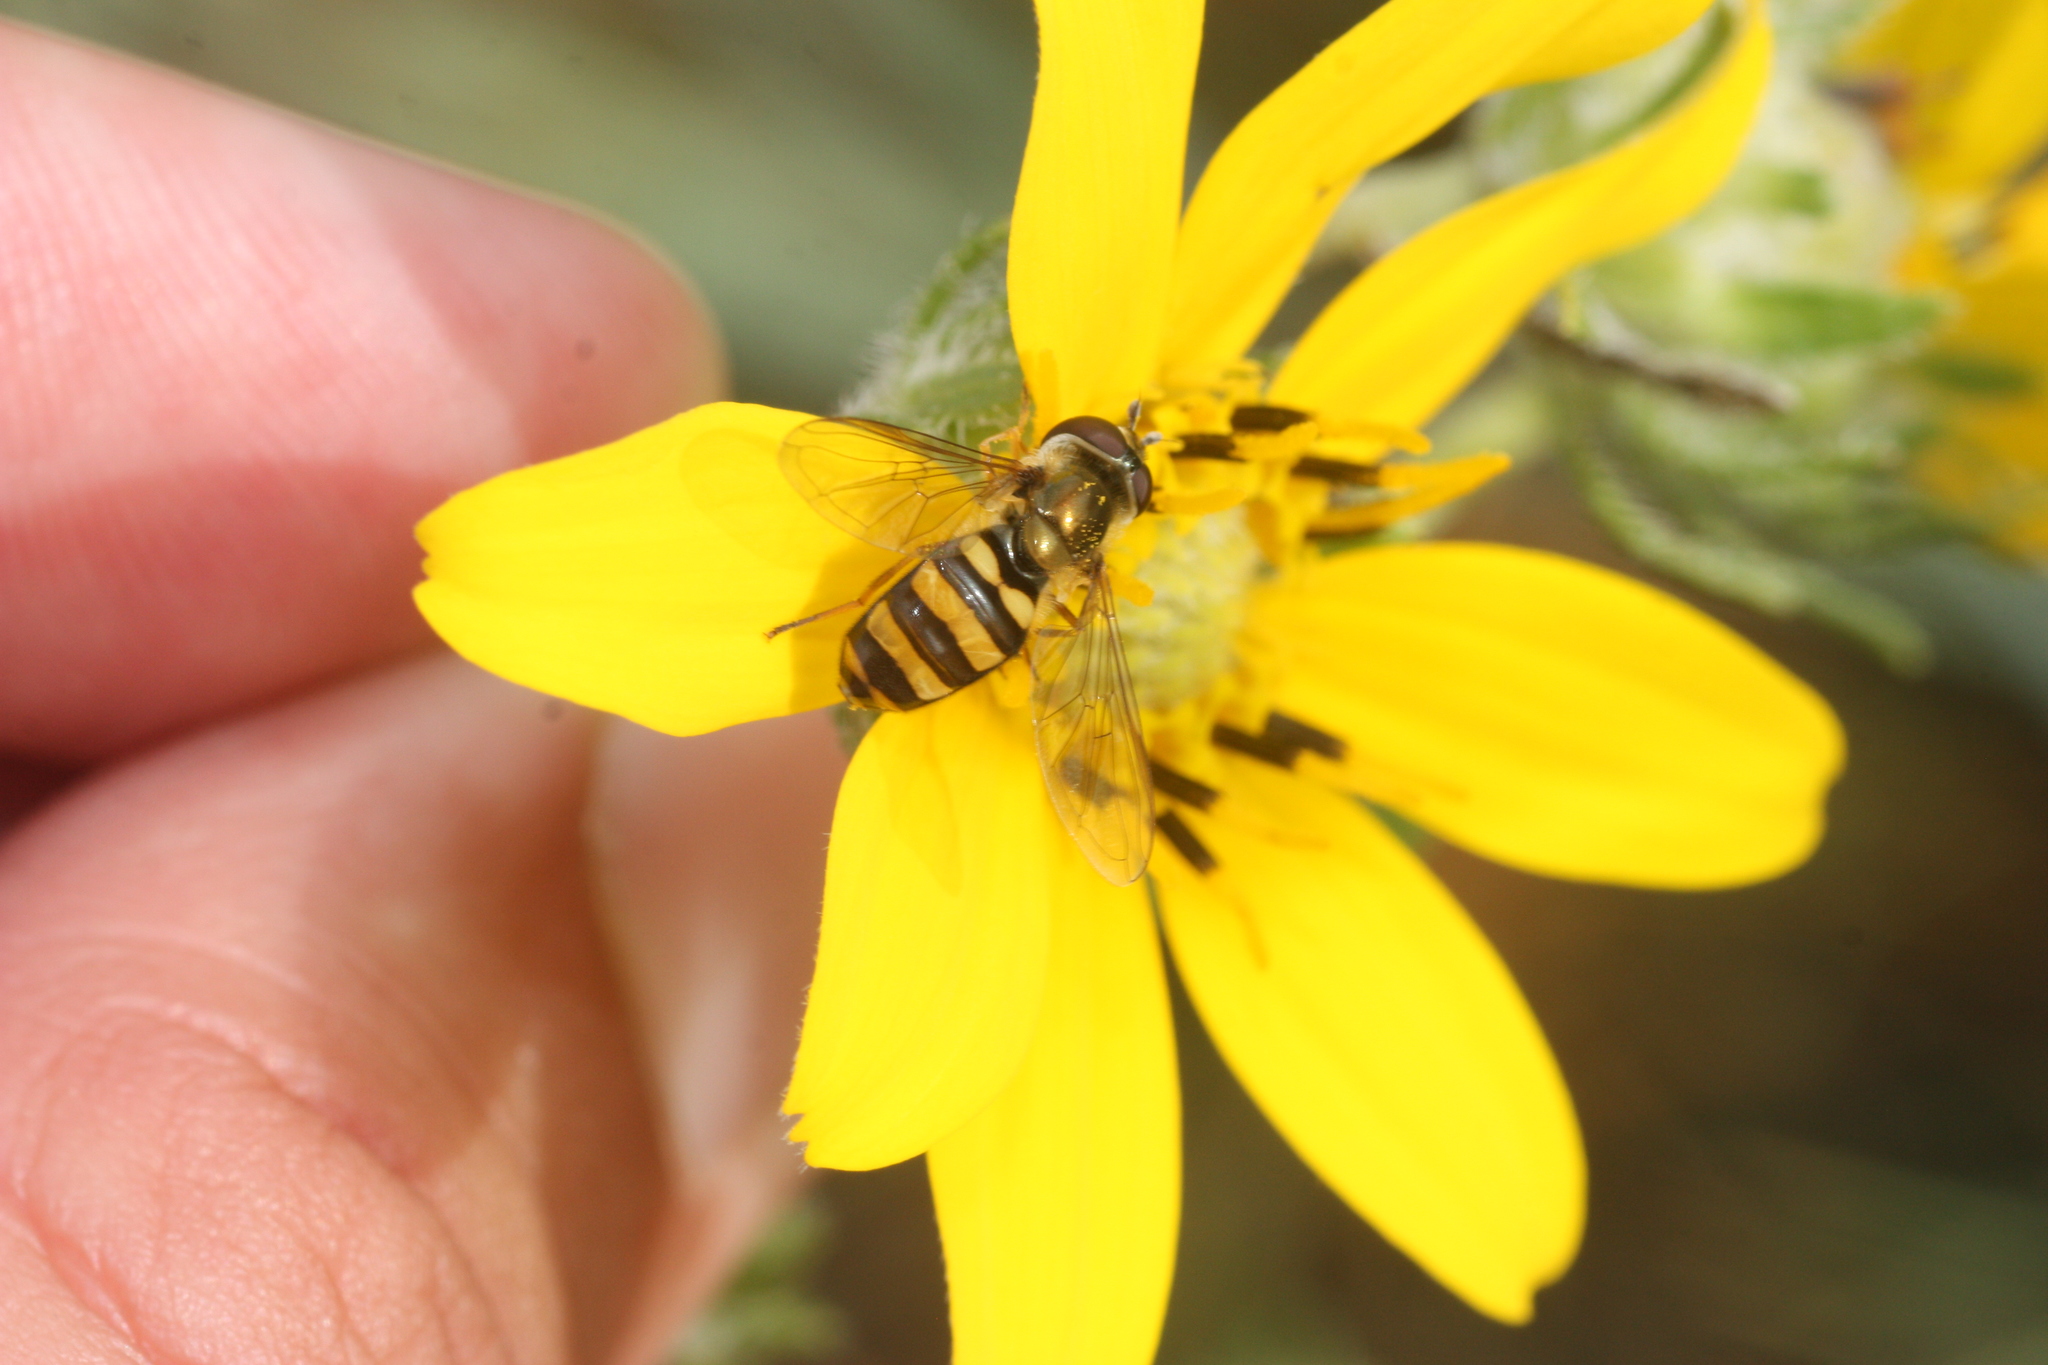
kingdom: Animalia
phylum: Arthropoda
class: Insecta
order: Diptera
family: Syrphidae
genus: Eupeodes
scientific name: Eupeodes
